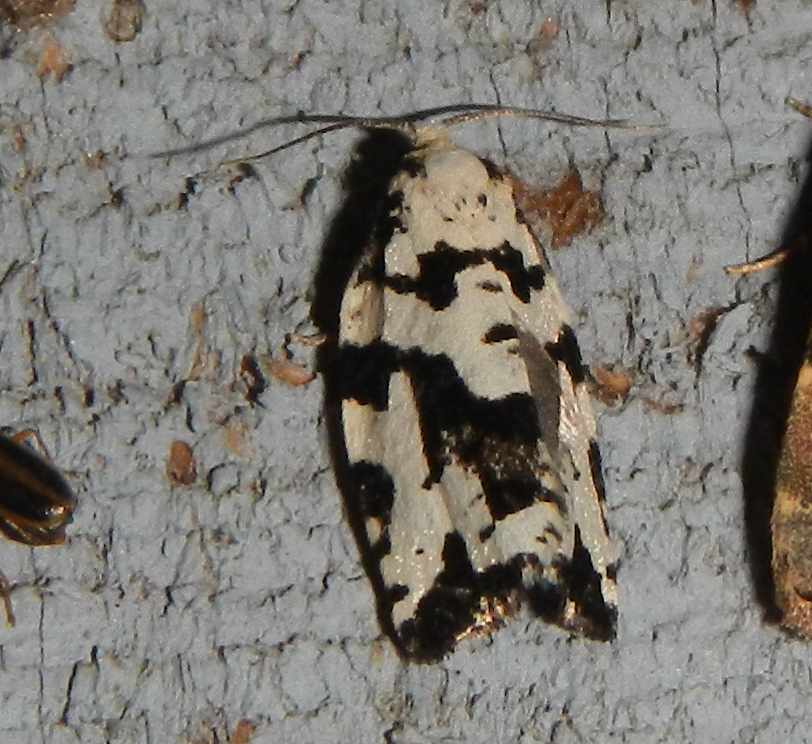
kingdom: Animalia
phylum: Arthropoda
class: Insecta
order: Lepidoptera
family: Tortricidae
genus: Archips
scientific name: Archips dissitana
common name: Boldly-marked archips moth
